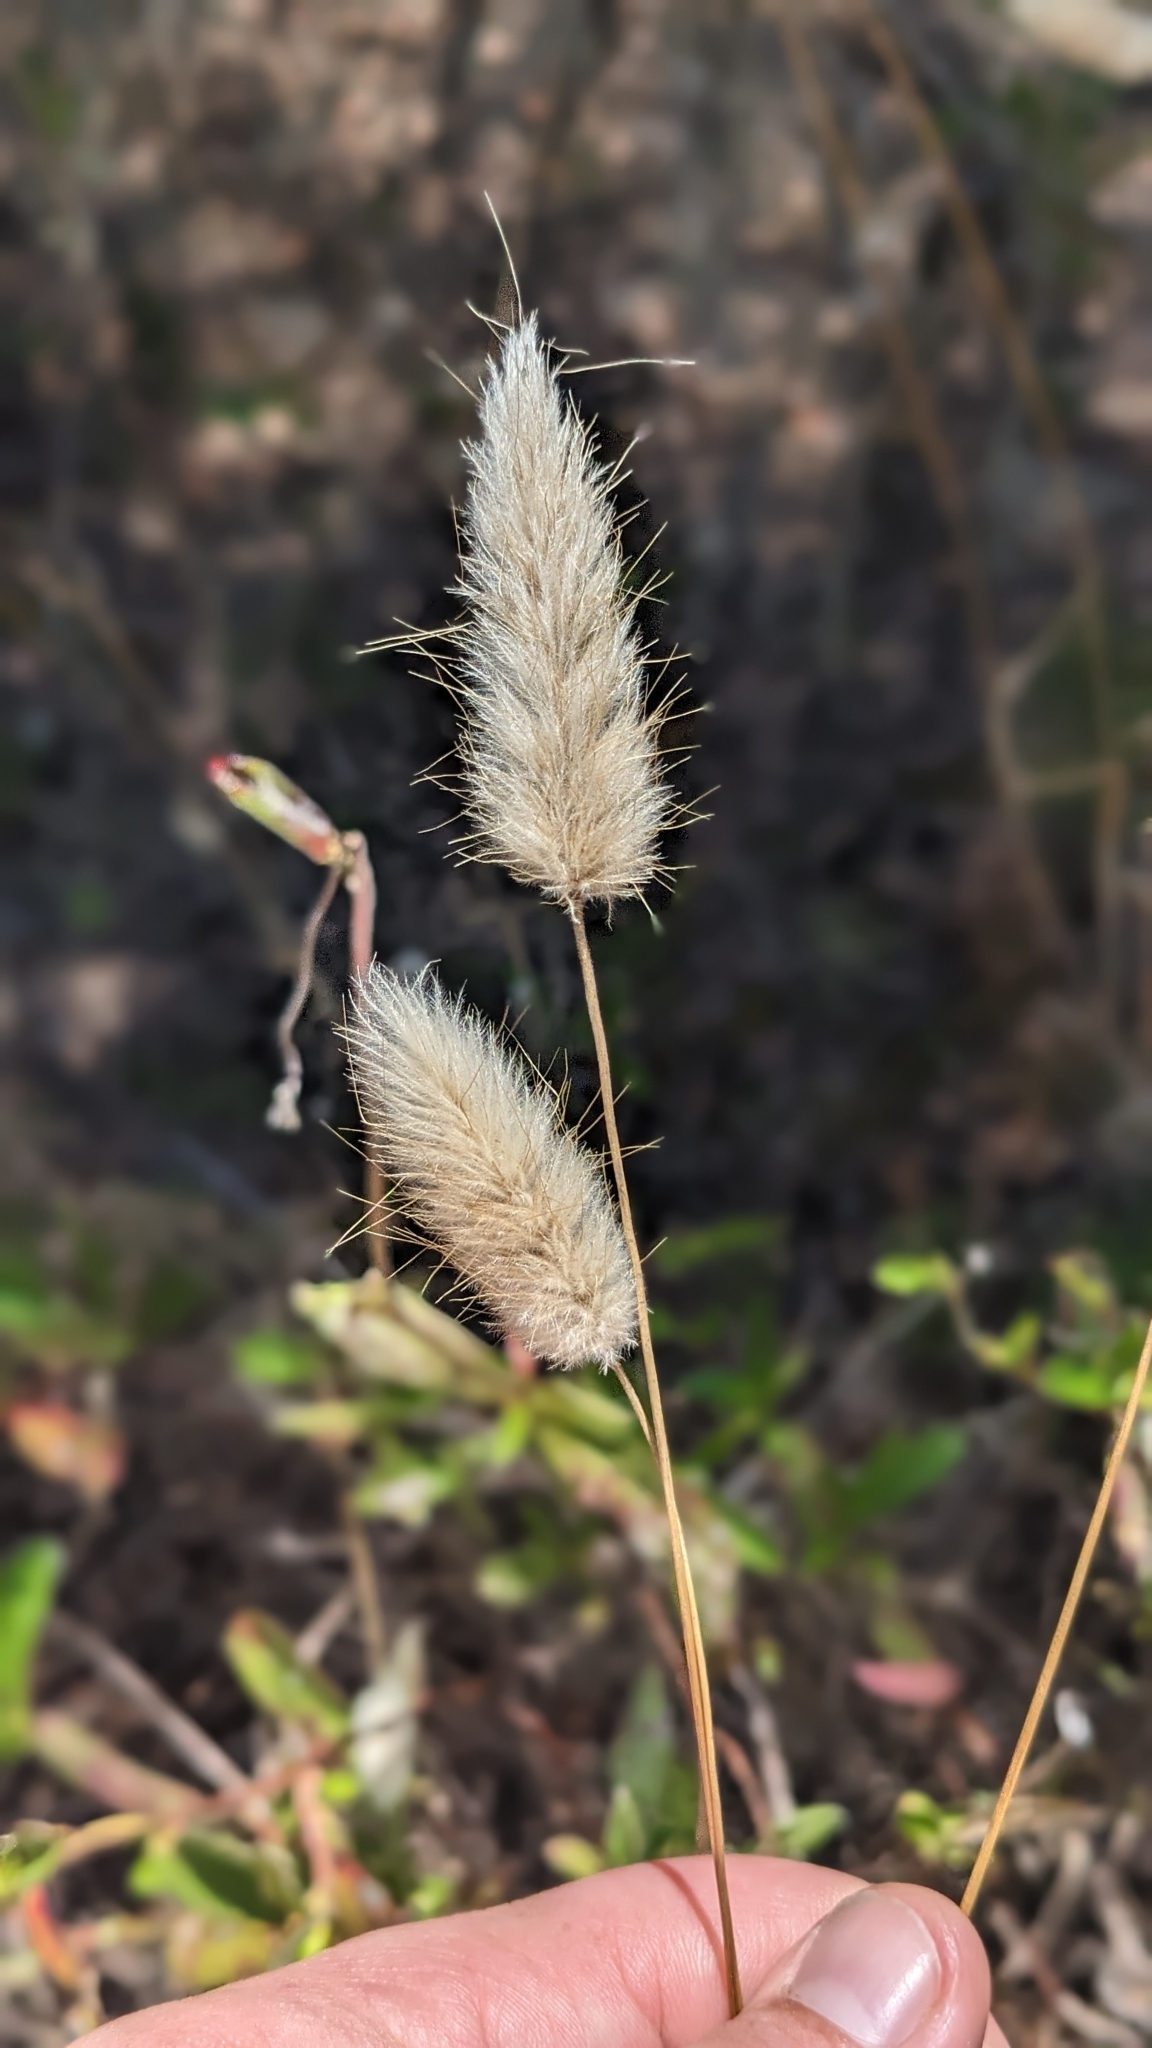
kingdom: Plantae
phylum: Tracheophyta
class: Liliopsida
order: Poales
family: Poaceae
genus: Lagurus
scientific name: Lagurus ovatus
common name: Hare's-tail
